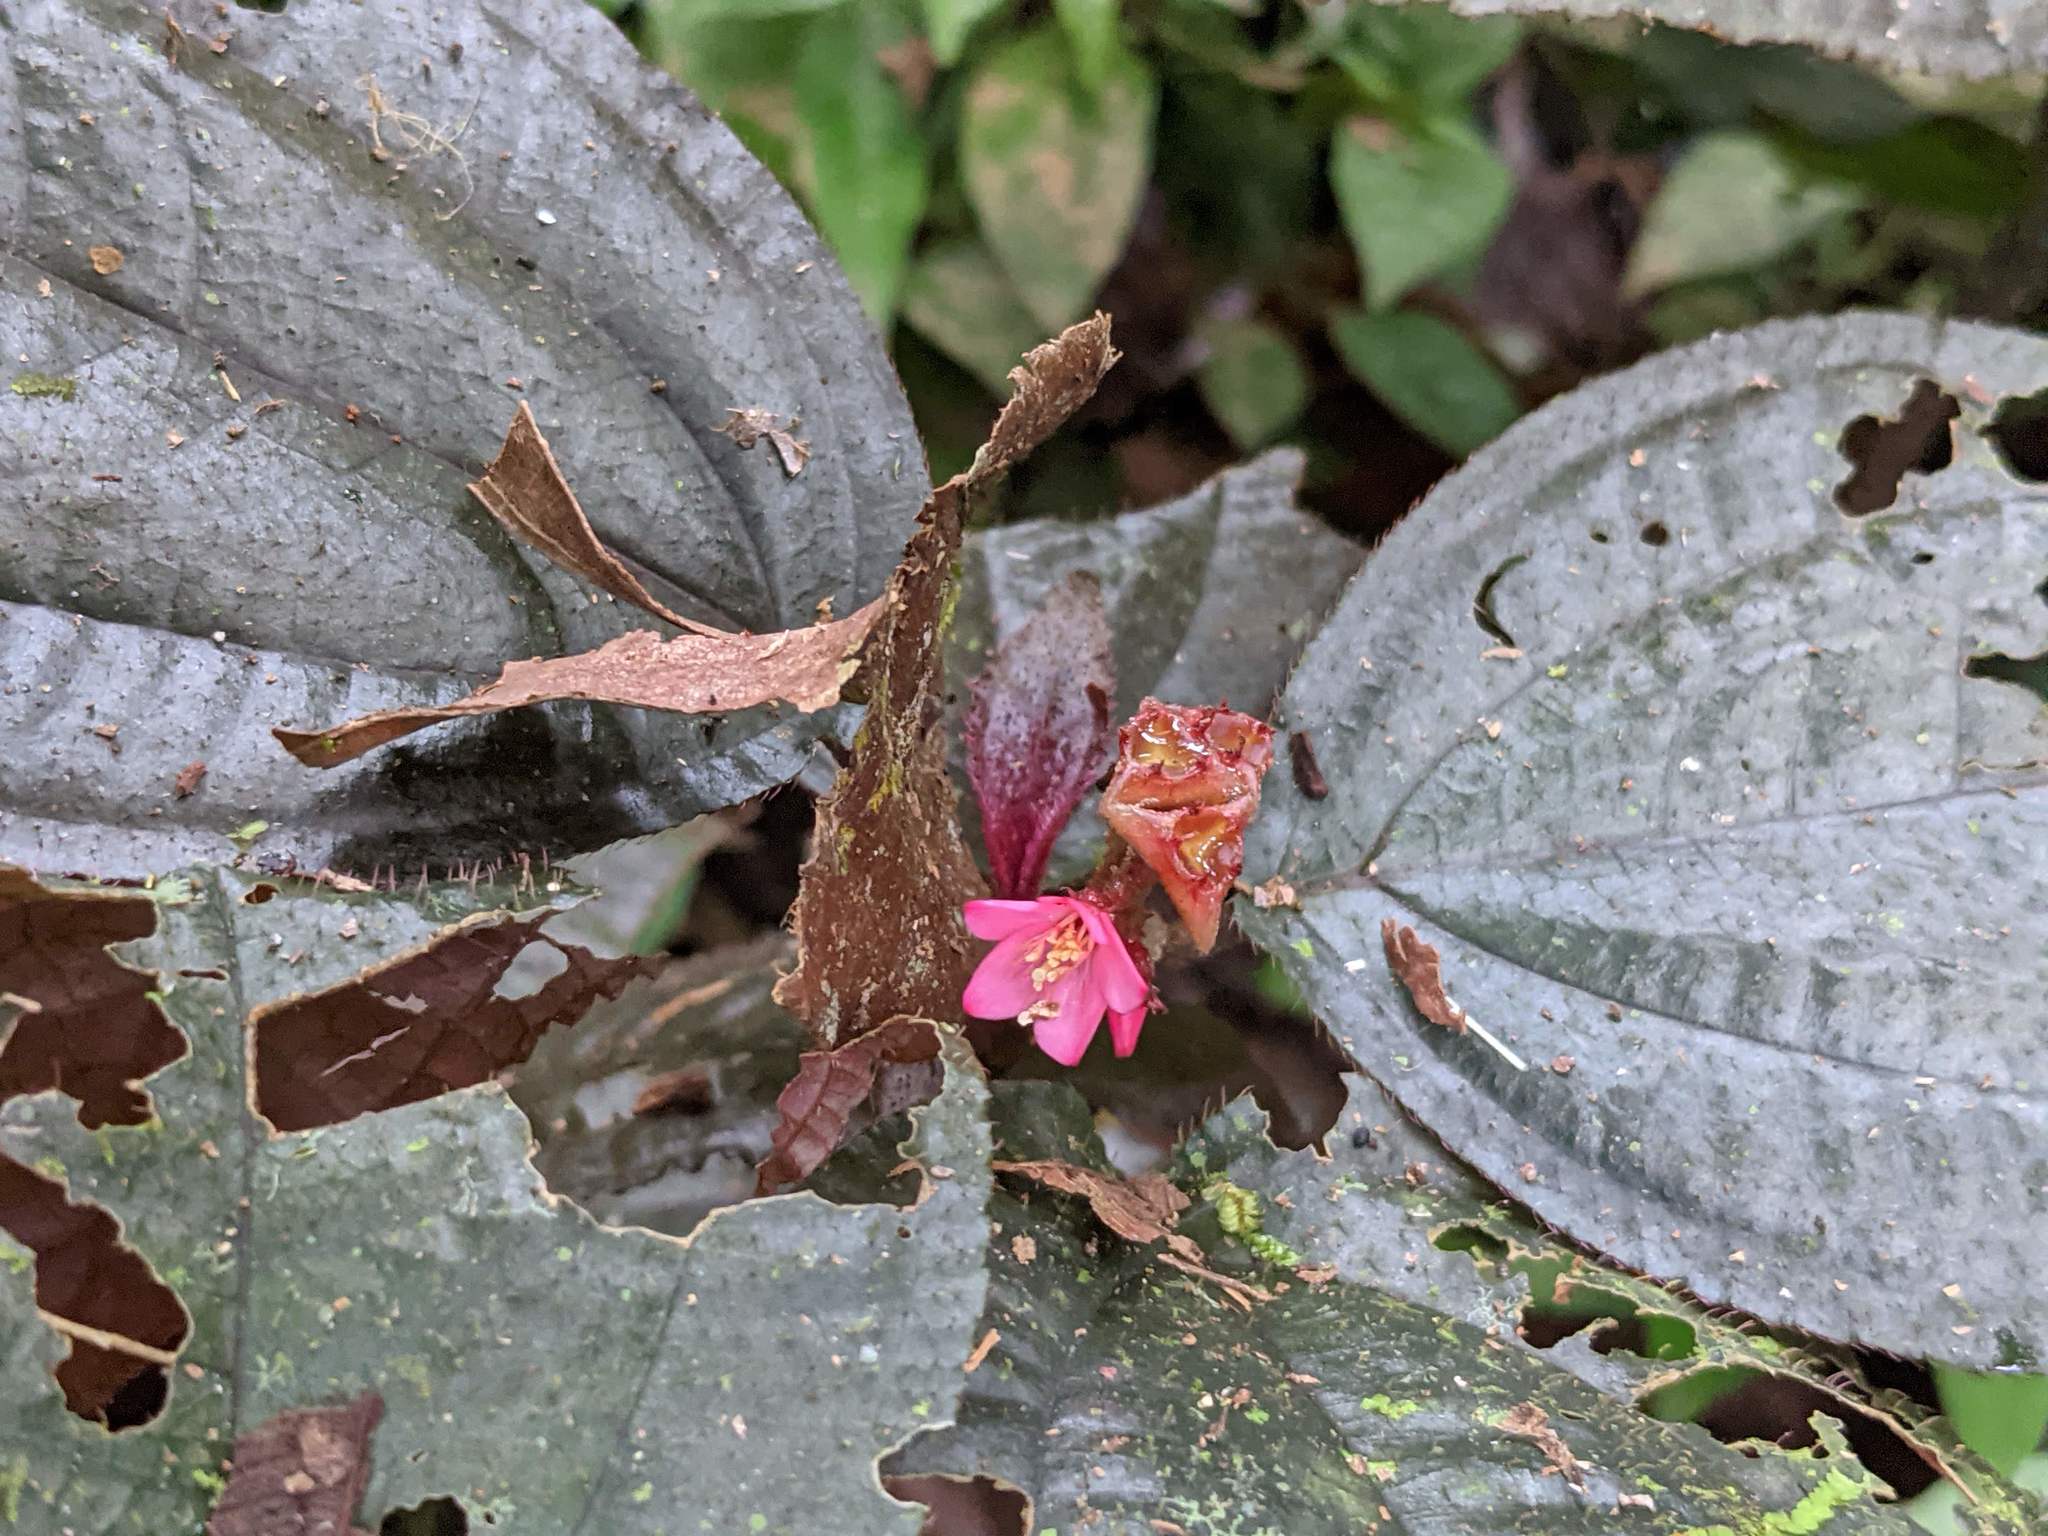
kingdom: Plantae
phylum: Tracheophyta
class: Magnoliopsida
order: Myrtales
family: Melastomataceae
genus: Triolena
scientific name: Triolena hirsuta
